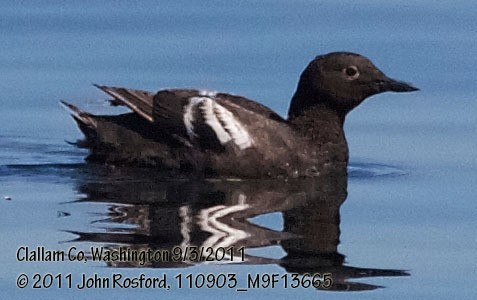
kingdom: Animalia
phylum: Chordata
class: Aves
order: Charadriiformes
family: Alcidae
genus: Cepphus
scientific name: Cepphus columba
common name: Pigeon guillemot
